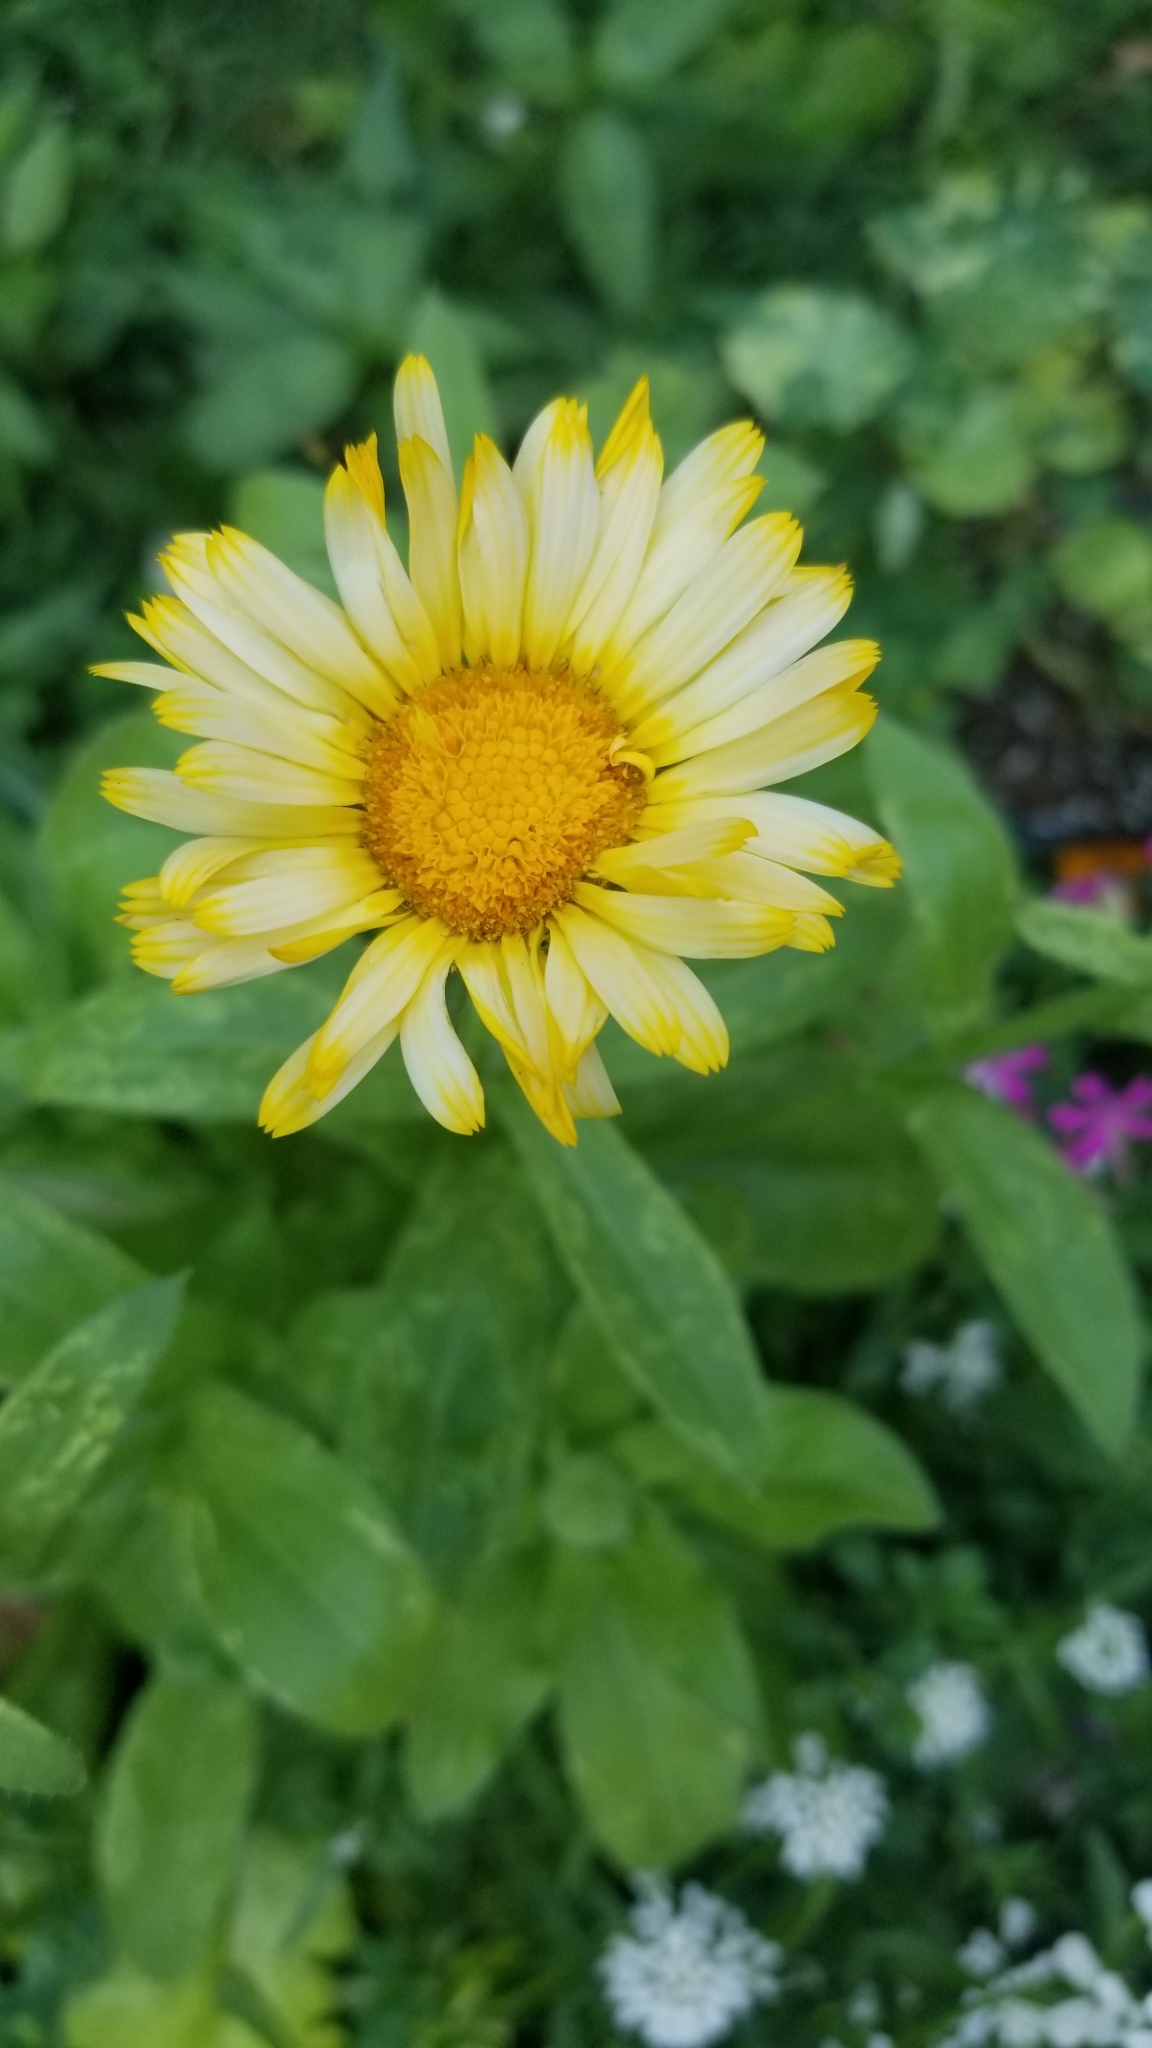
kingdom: Plantae
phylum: Tracheophyta
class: Magnoliopsida
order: Asterales
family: Asteraceae
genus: Calendula
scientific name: Calendula officinalis
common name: Pot marigold
